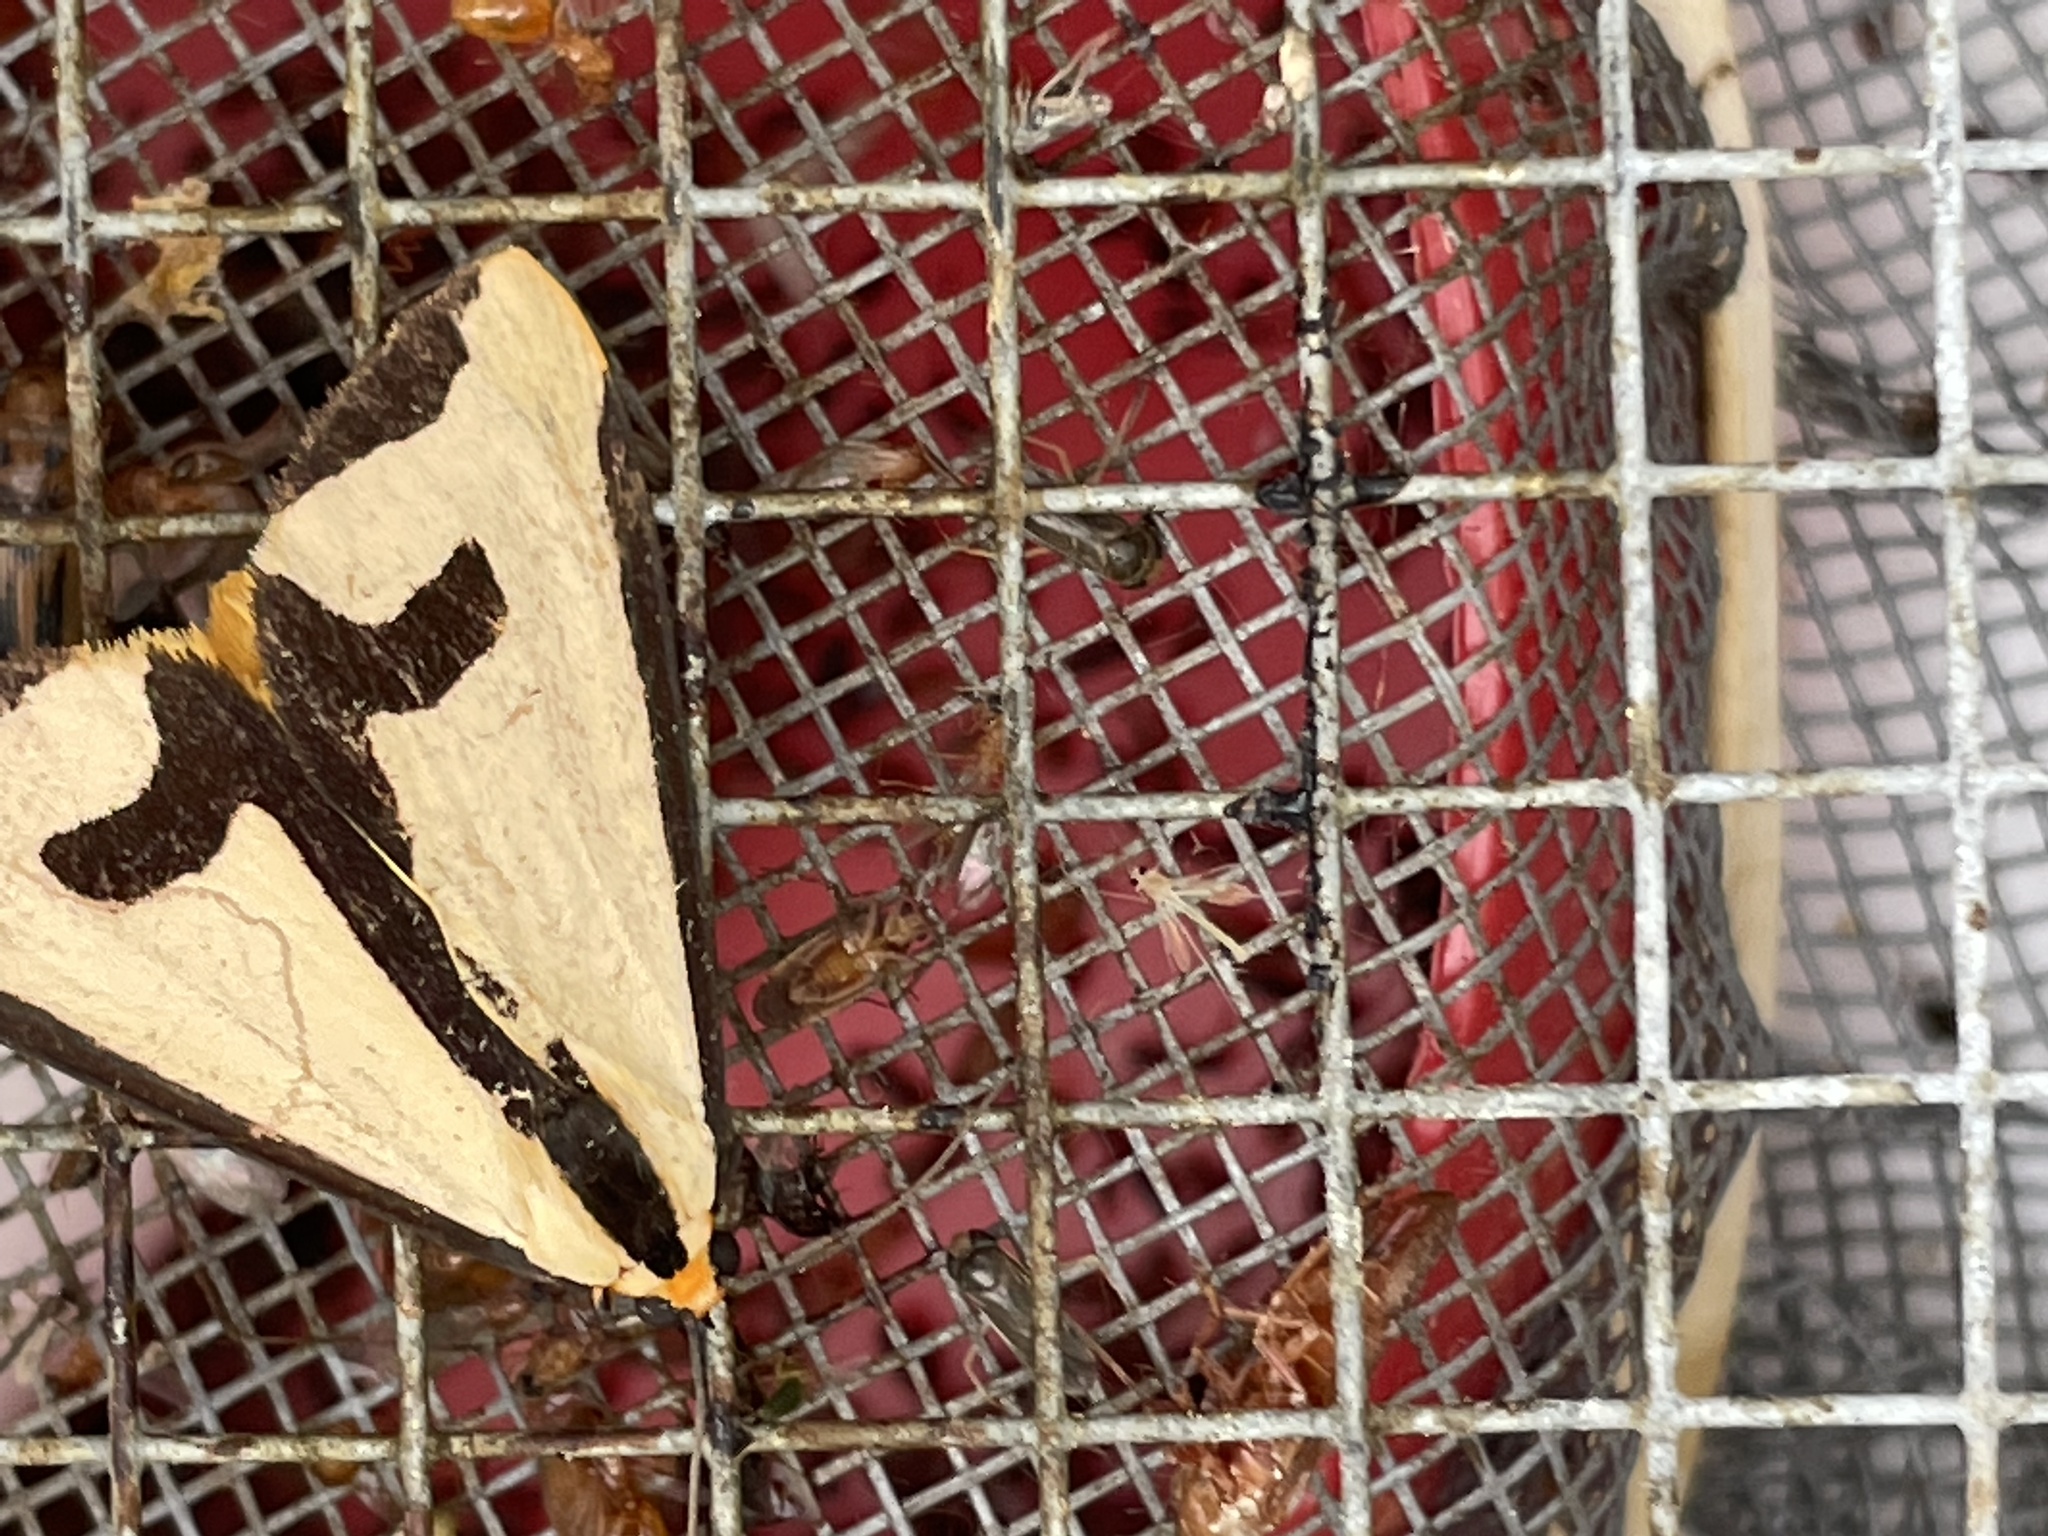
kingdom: Animalia
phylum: Arthropoda
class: Insecta
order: Lepidoptera
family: Erebidae
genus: Haploa
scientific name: Haploa clymene
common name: Clymene moth
